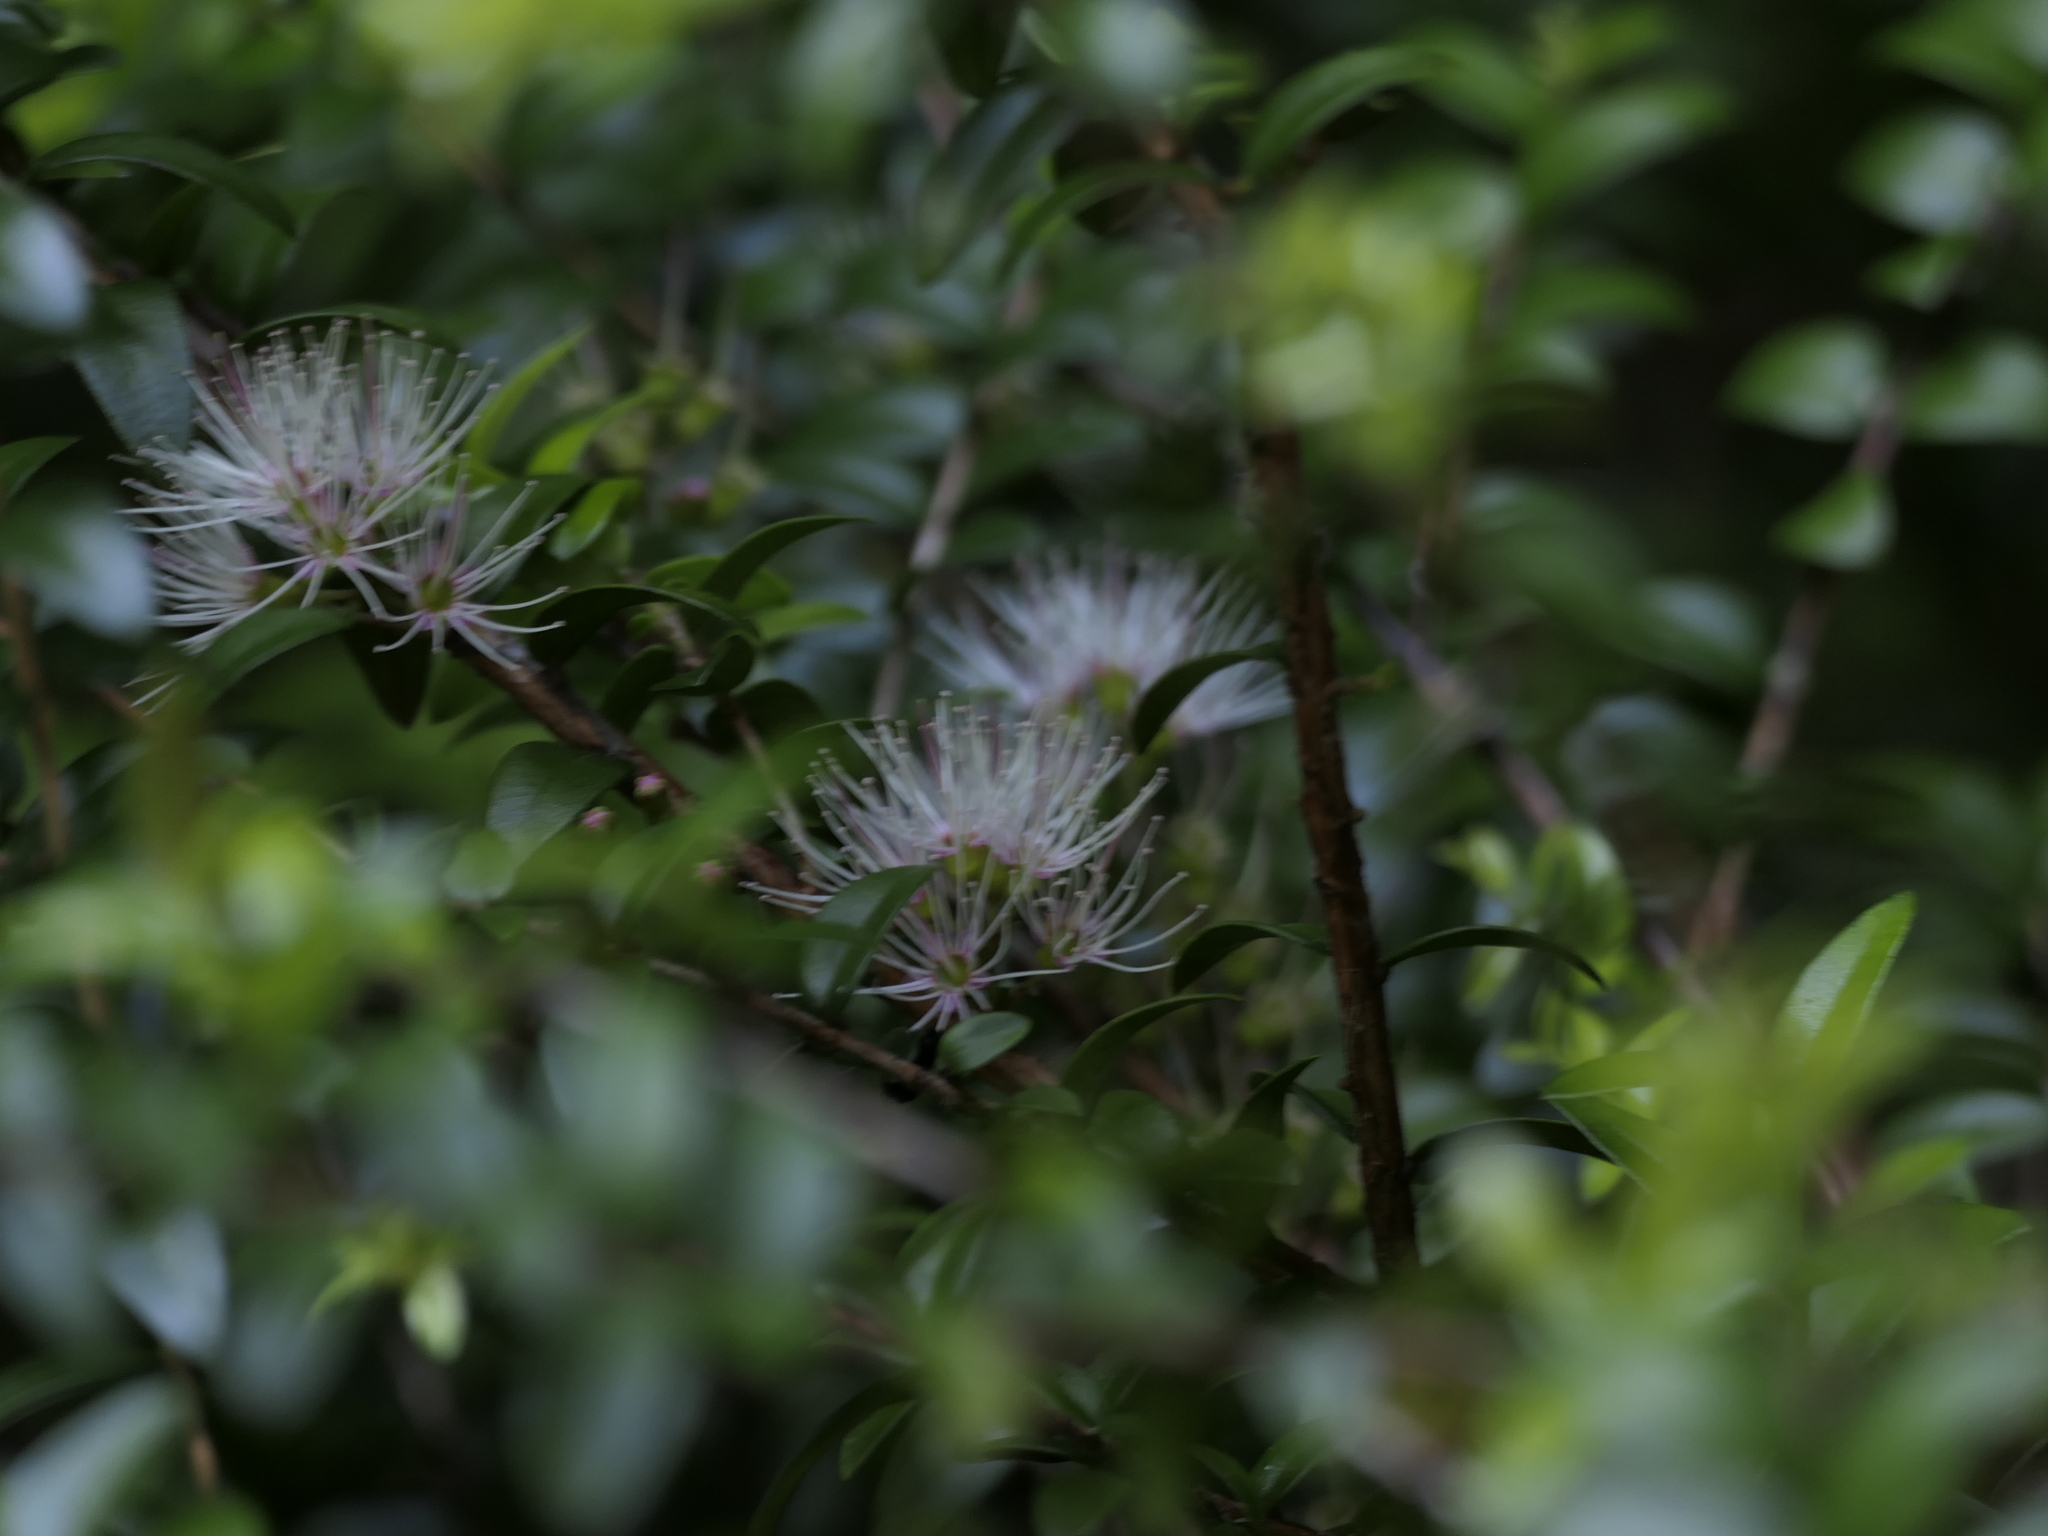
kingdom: Plantae
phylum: Tracheophyta
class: Magnoliopsida
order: Myrtales
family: Myrtaceae
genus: Metrosideros
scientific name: Metrosideros diffusa
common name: Small ratavine
